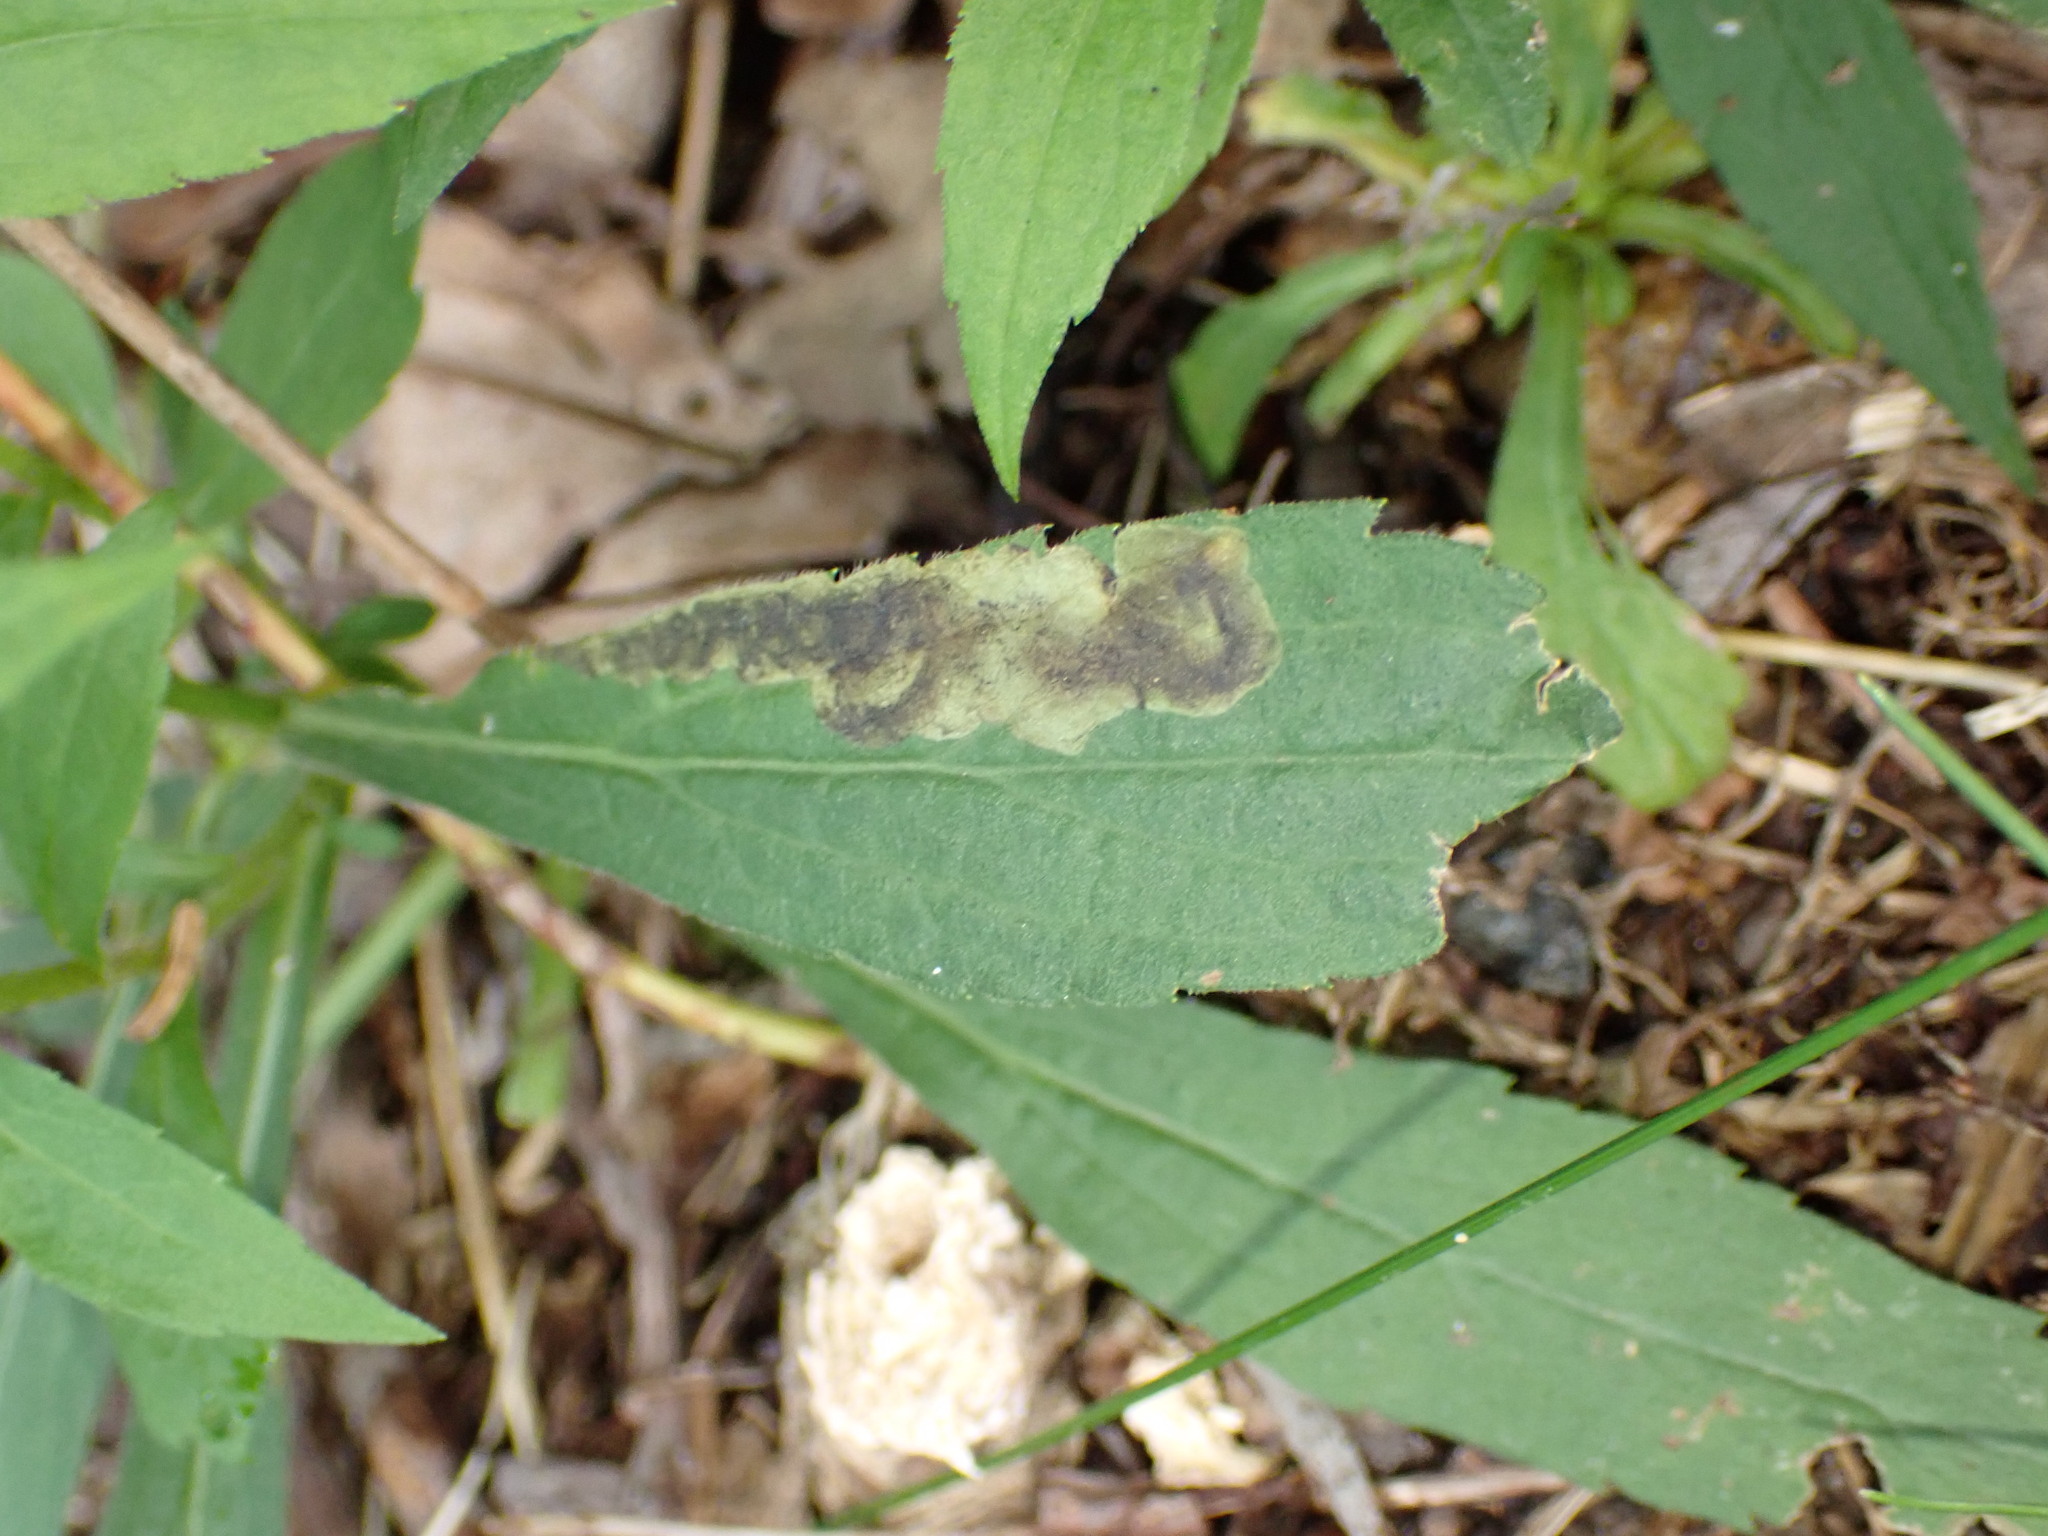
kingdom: Animalia
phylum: Arthropoda
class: Insecta
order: Diptera
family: Agromyzidae
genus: Nemorimyza
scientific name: Nemorimyza posticata
